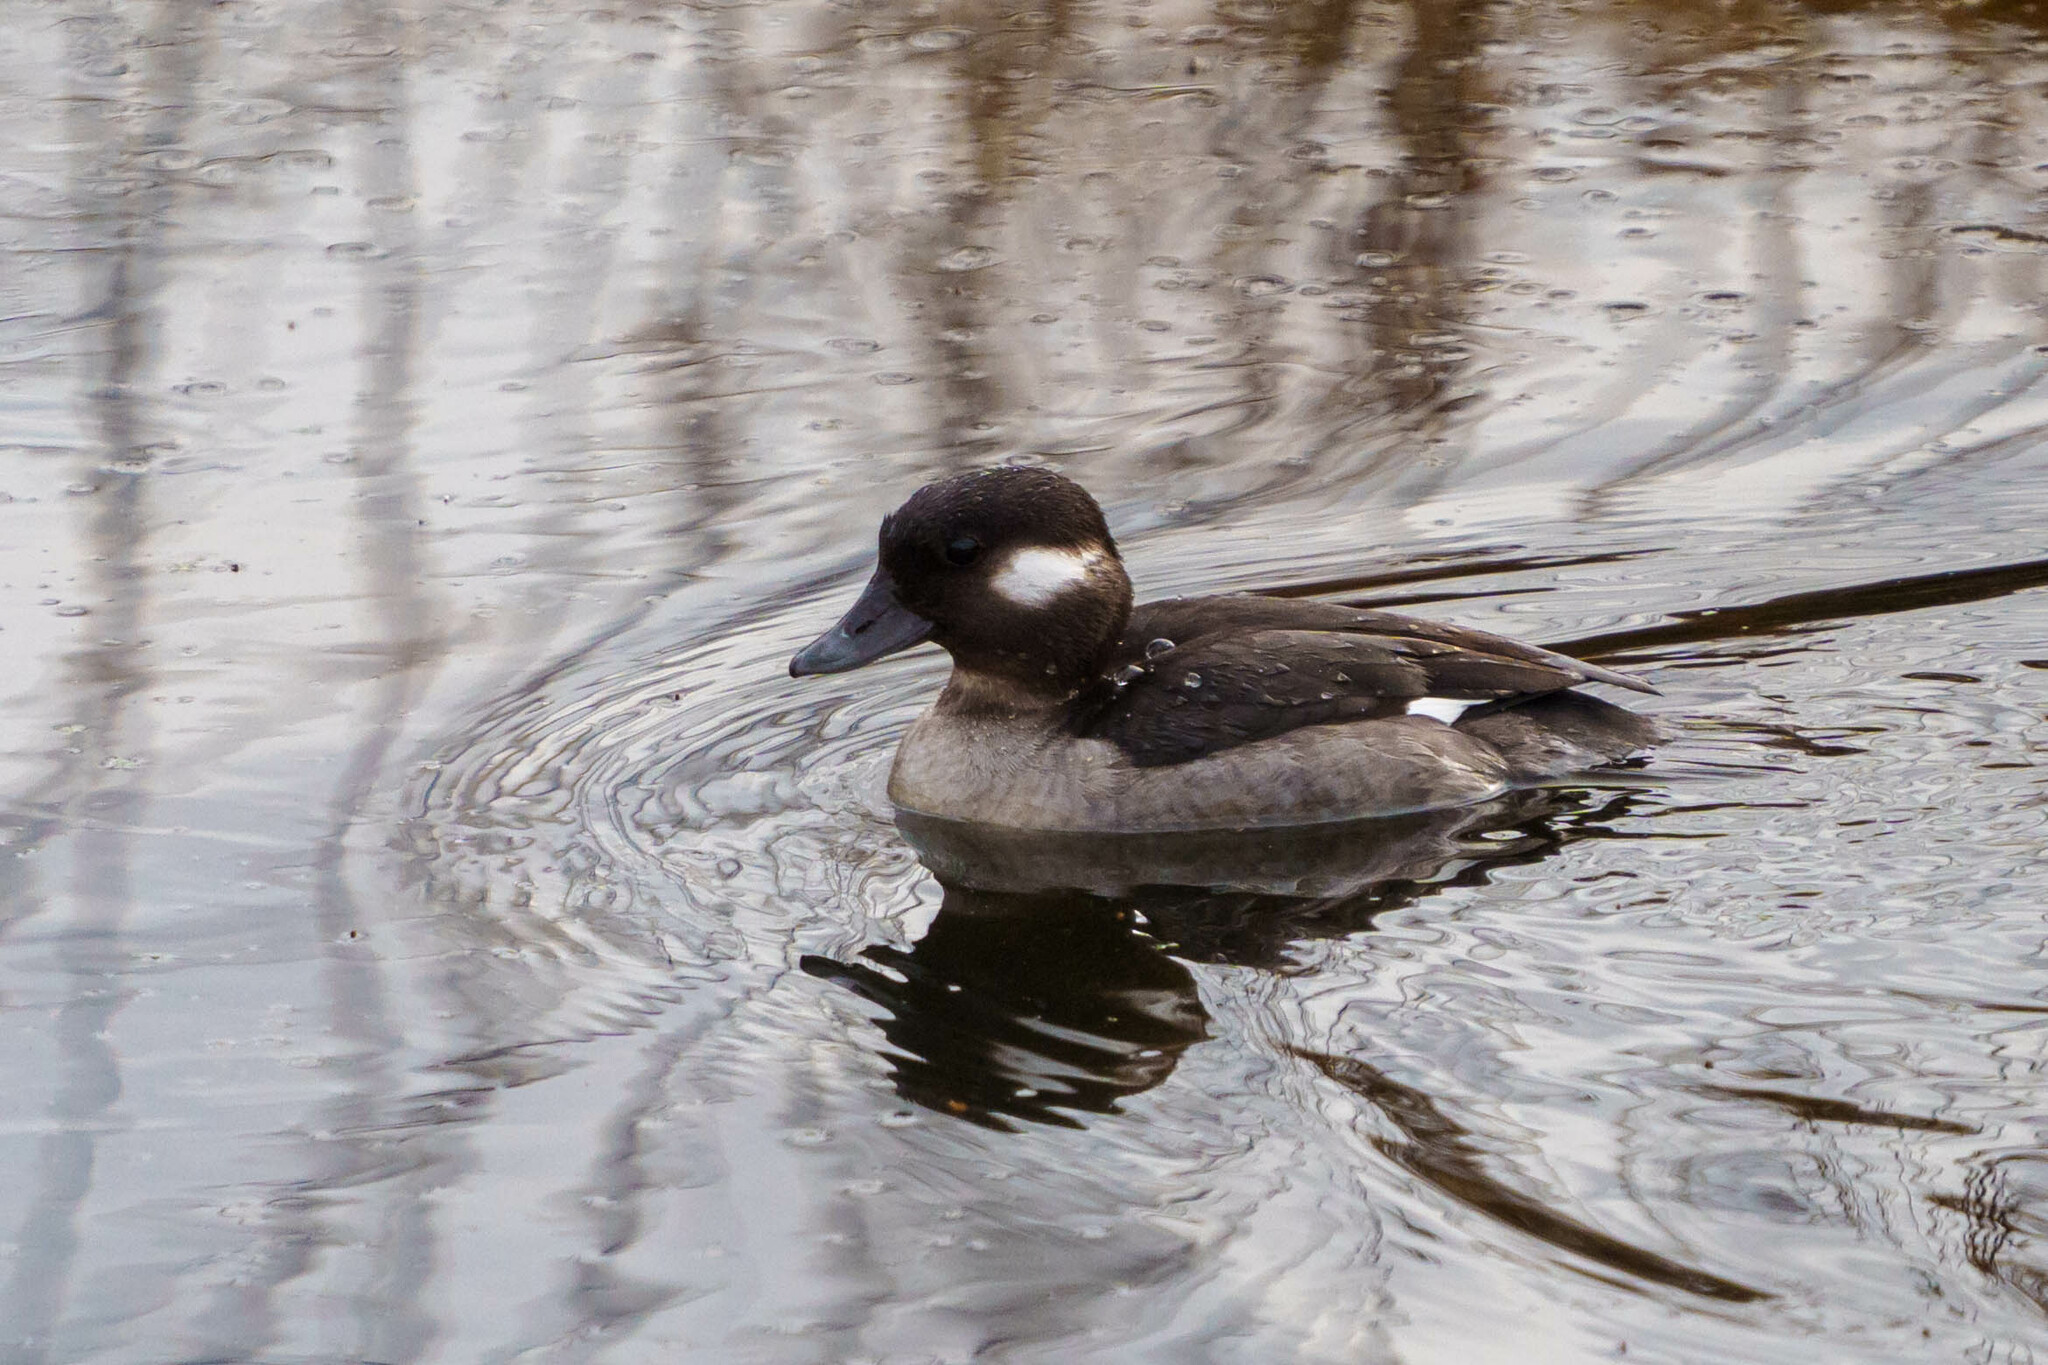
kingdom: Animalia
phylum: Chordata
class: Aves
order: Anseriformes
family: Anatidae
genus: Bucephala
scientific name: Bucephala albeola
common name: Bufflehead
